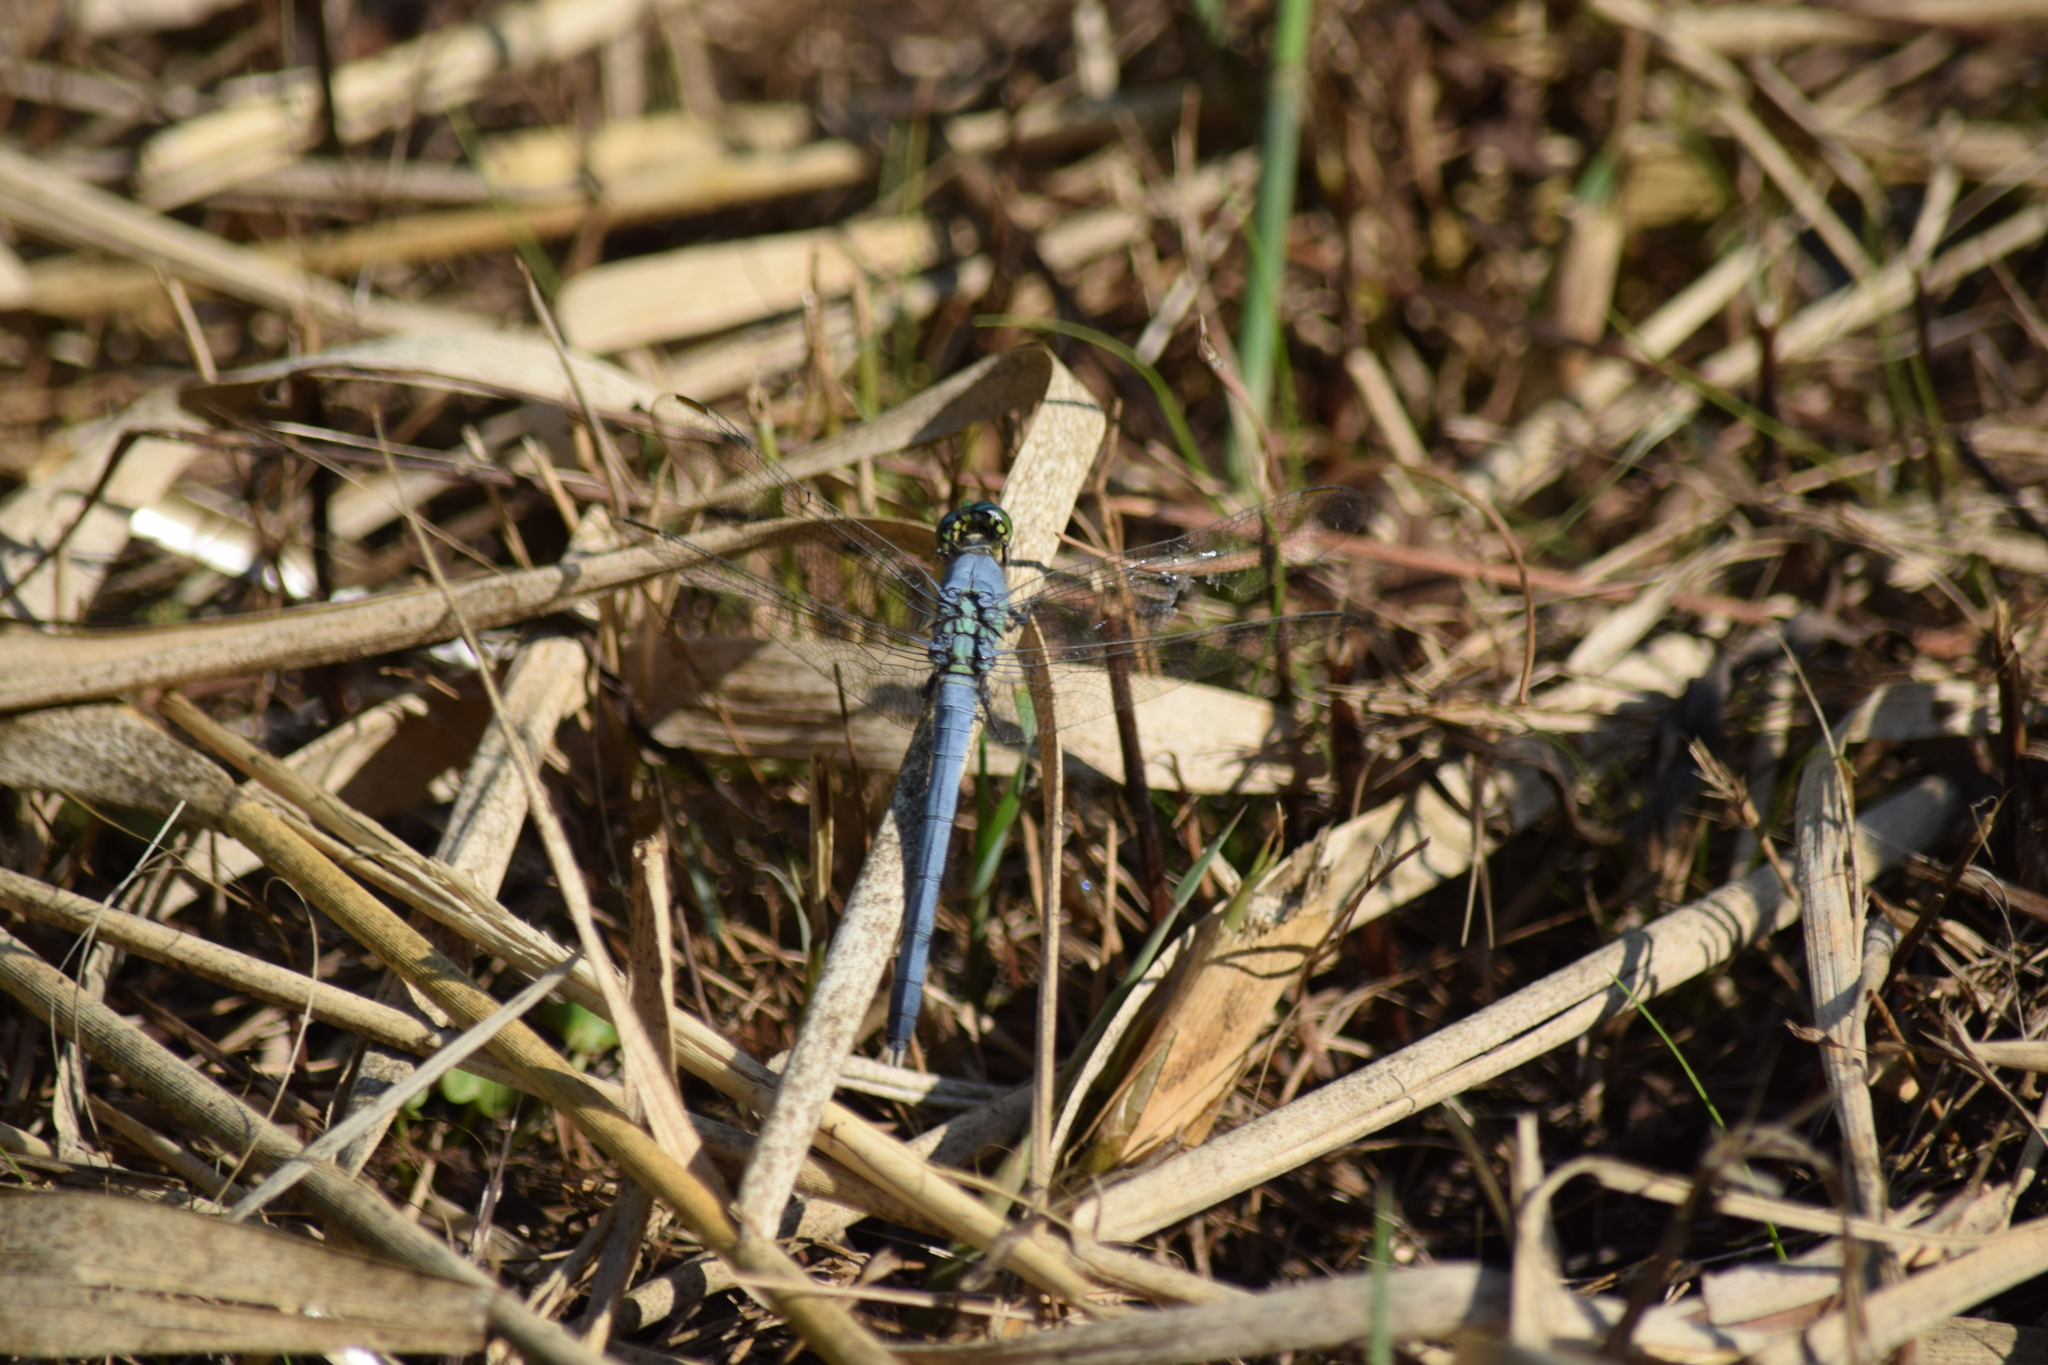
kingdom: Animalia
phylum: Arthropoda
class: Insecta
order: Odonata
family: Libellulidae
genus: Erythemis
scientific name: Erythemis simplicicollis
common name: Eastern pondhawk
